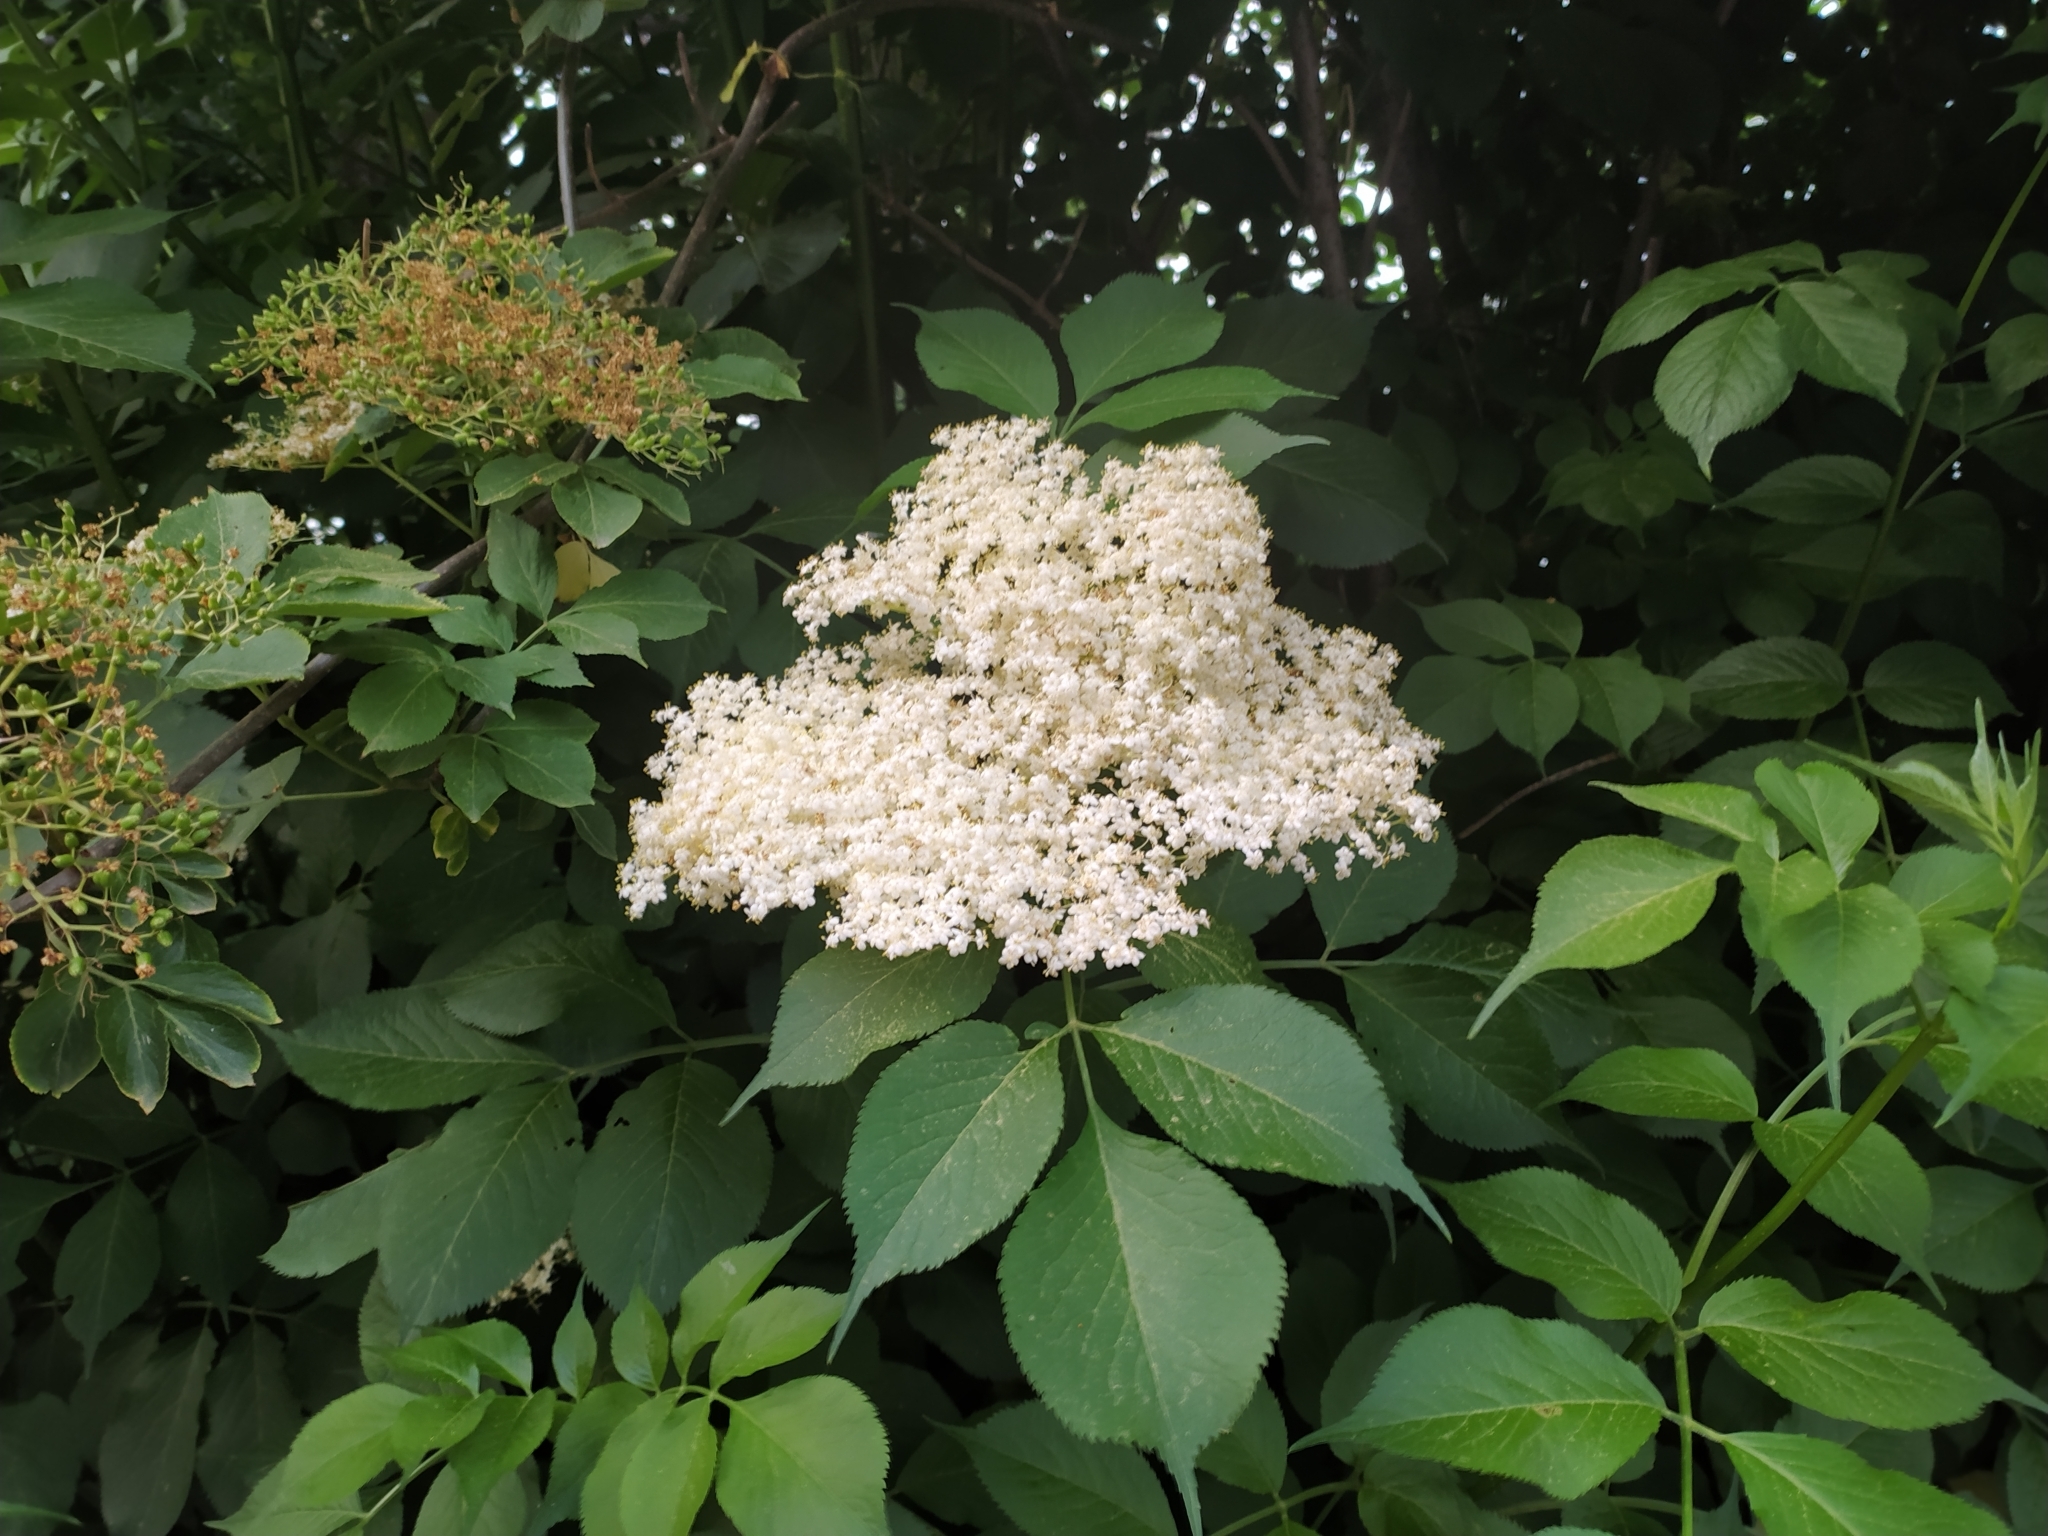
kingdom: Plantae
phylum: Tracheophyta
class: Magnoliopsida
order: Dipsacales
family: Viburnaceae
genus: Sambucus
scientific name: Sambucus nigra
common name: Elder
